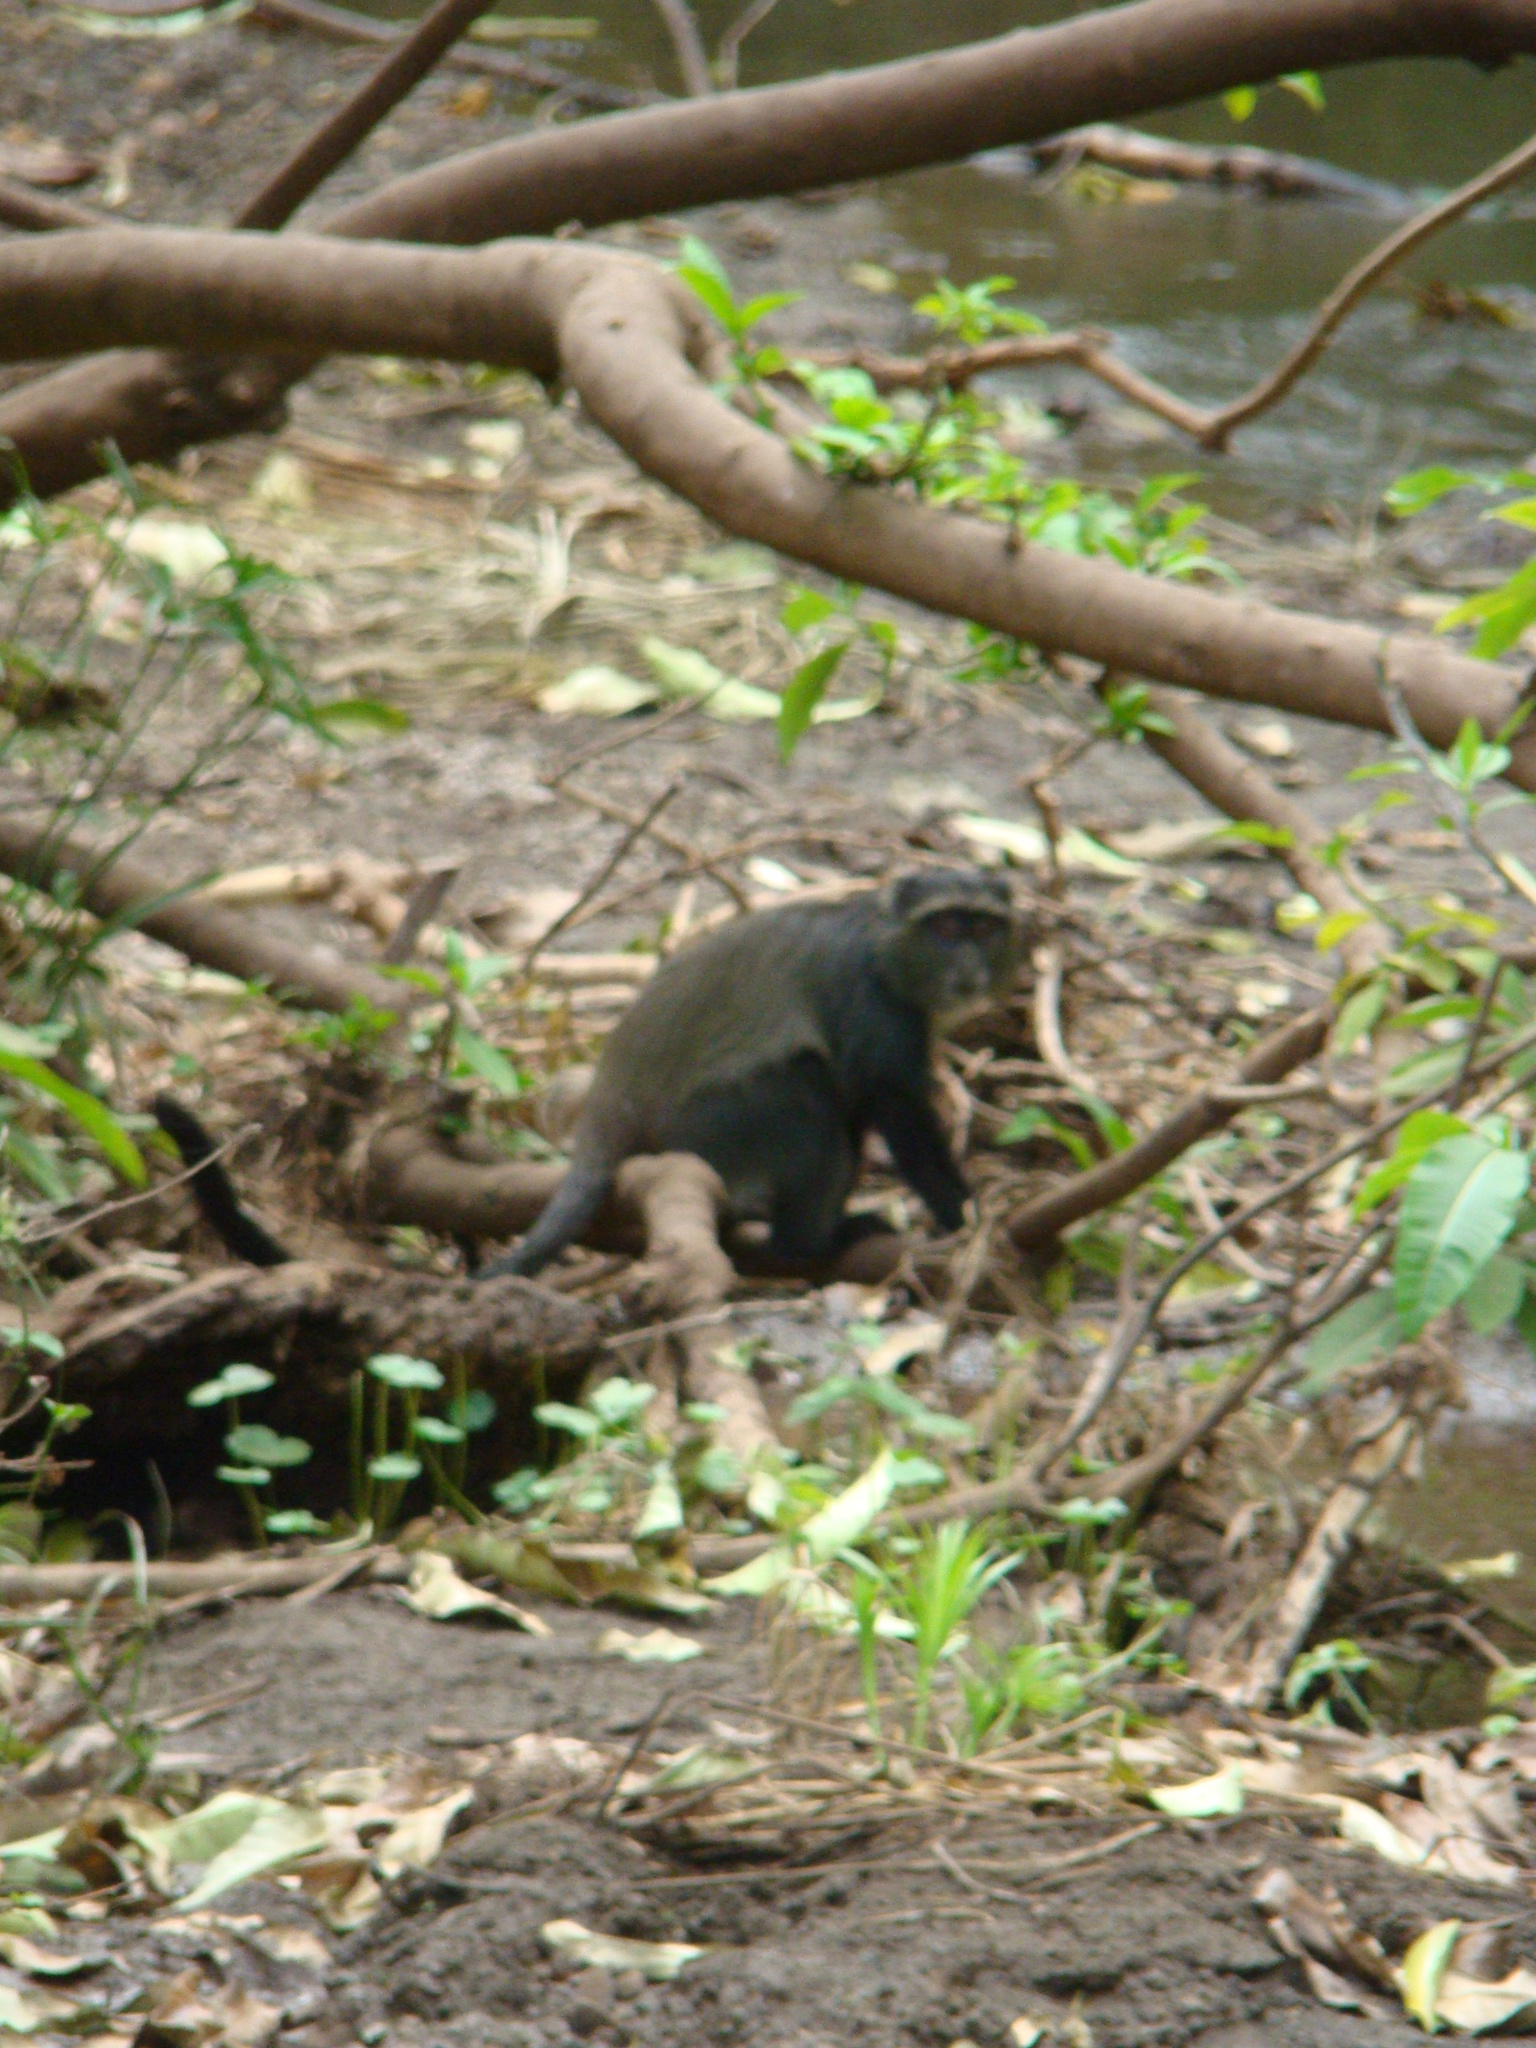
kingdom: Animalia
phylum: Chordata
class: Mammalia
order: Primates
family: Cercopithecidae
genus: Cercopithecus
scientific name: Cercopithecus mitis
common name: Blue monkey
